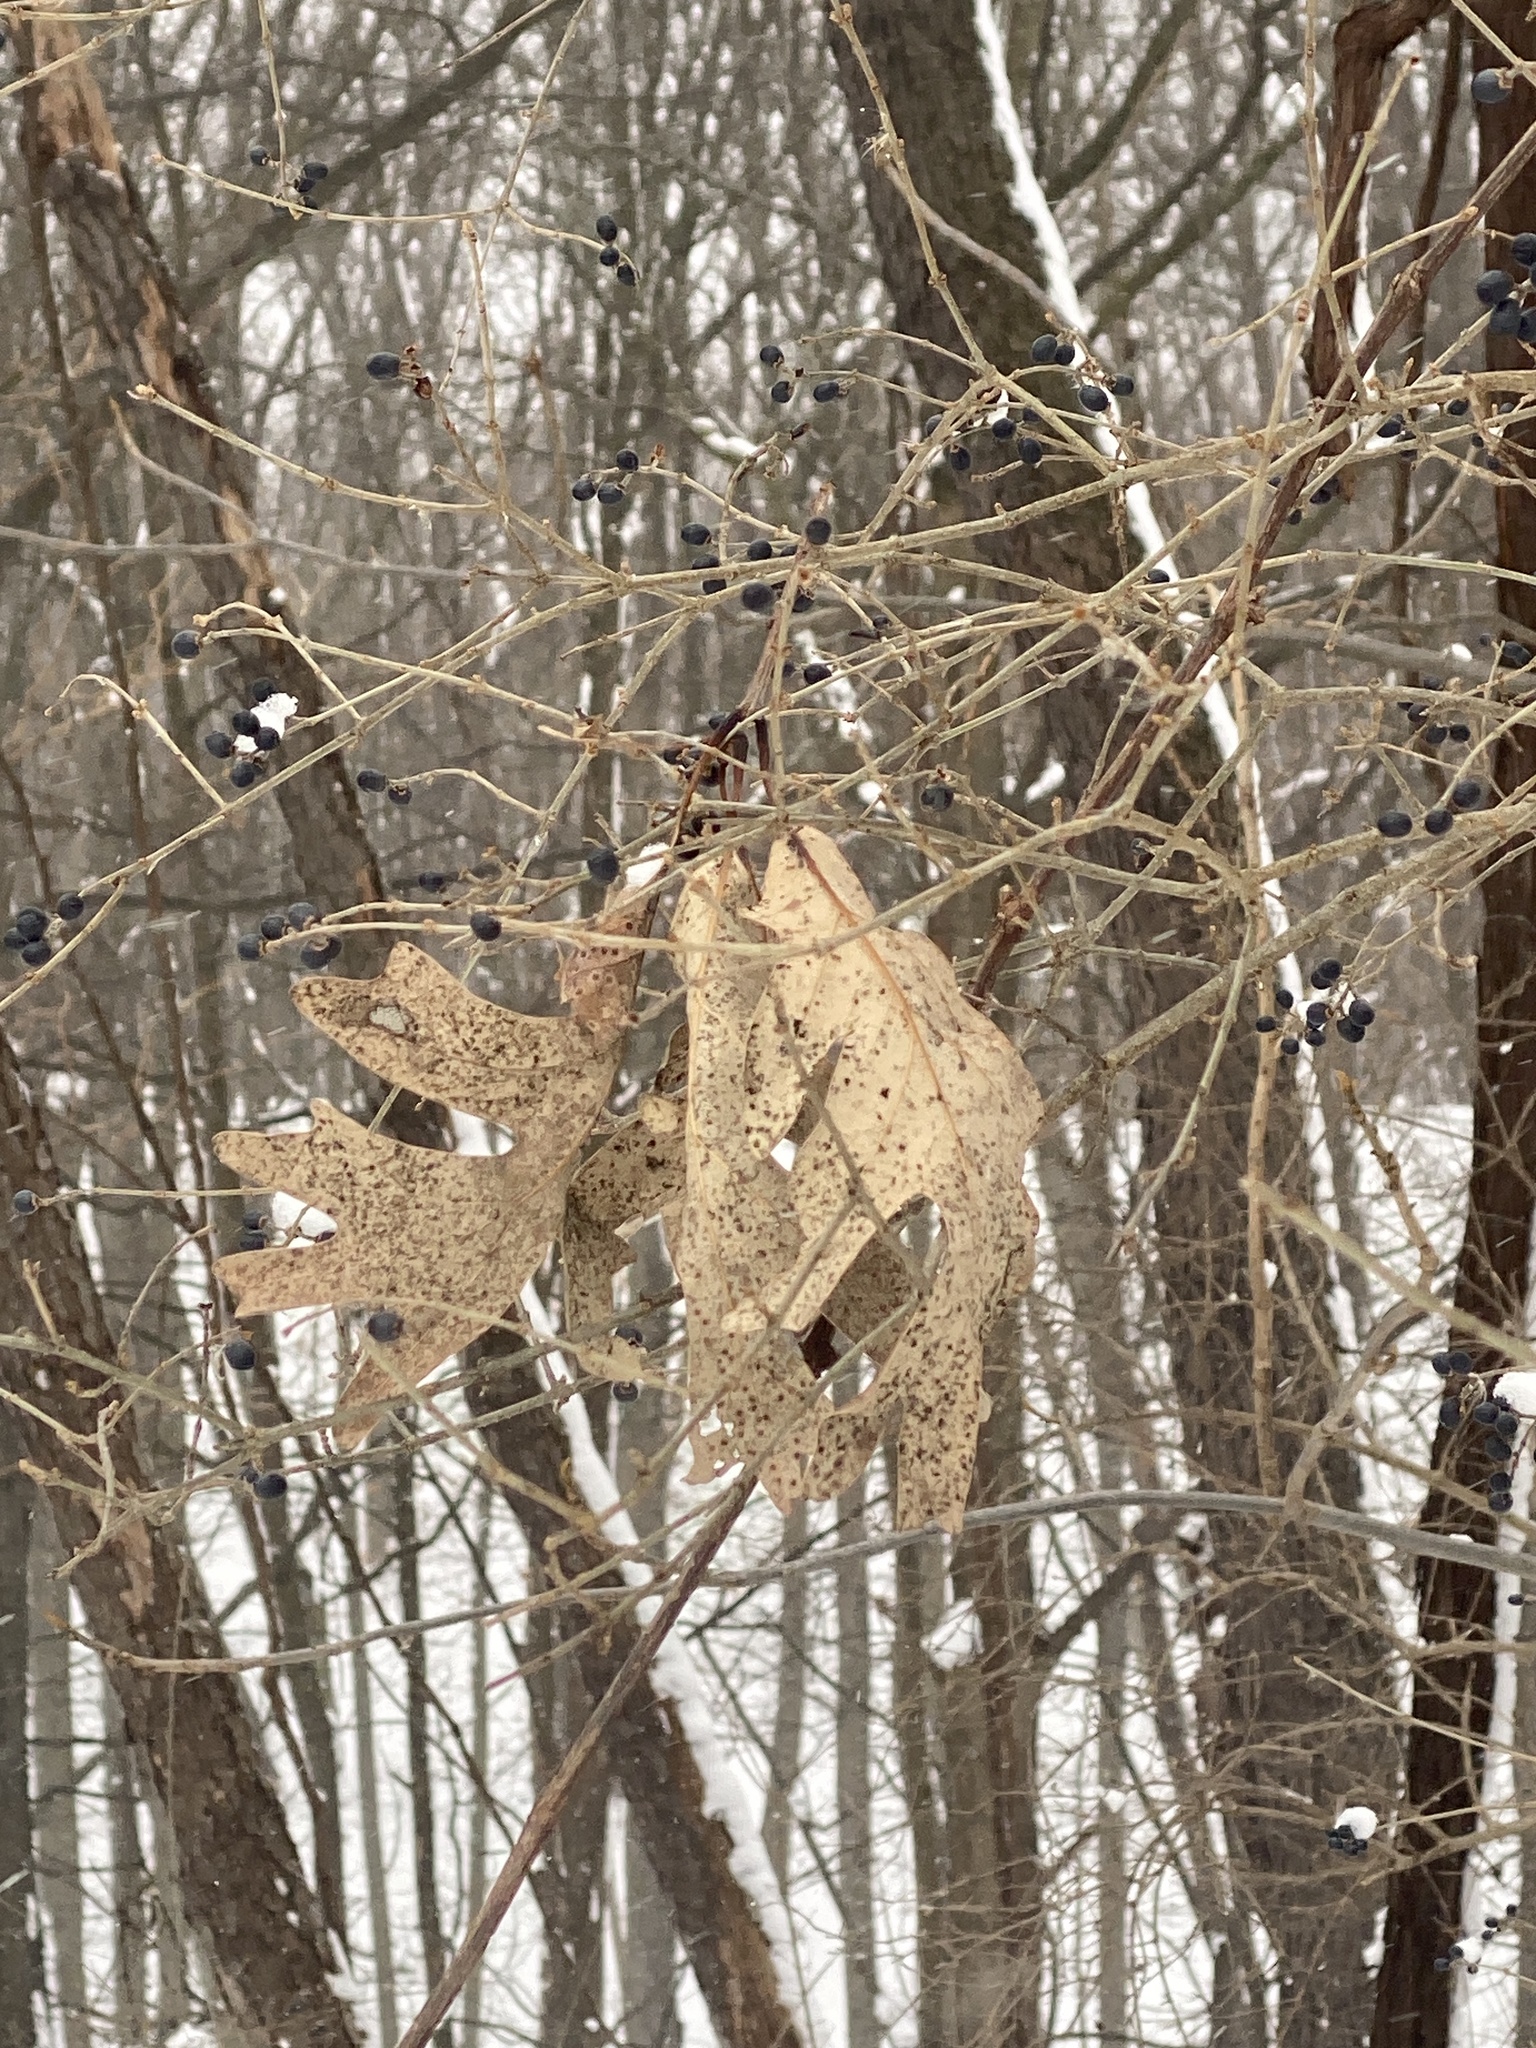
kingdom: Plantae
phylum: Tracheophyta
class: Magnoliopsida
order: Fagales
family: Fagaceae
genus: Quercus
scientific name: Quercus alba
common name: White oak
